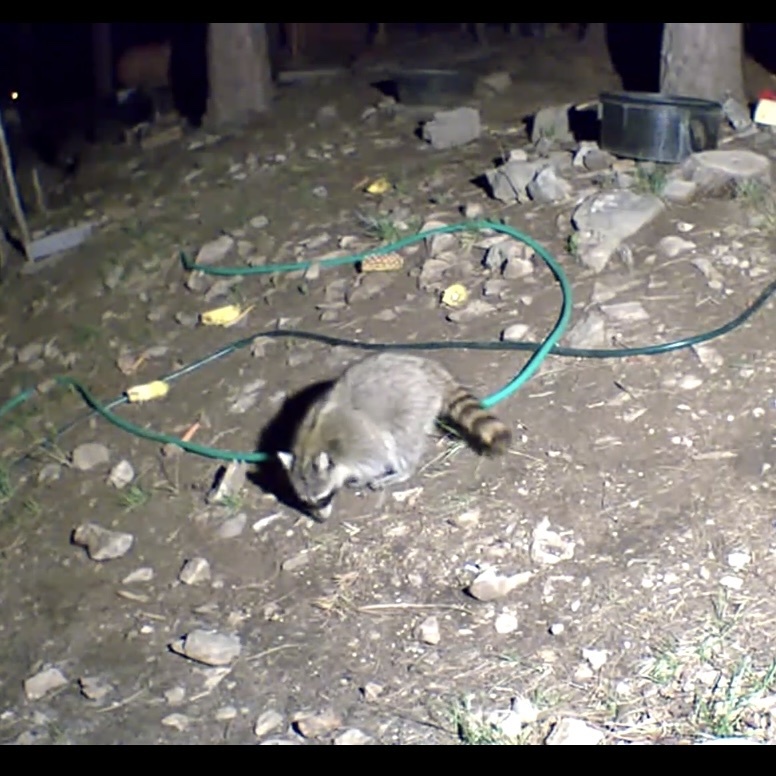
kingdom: Animalia
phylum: Chordata
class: Mammalia
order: Carnivora
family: Procyonidae
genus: Procyon
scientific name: Procyon lotor
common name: Raccoon
